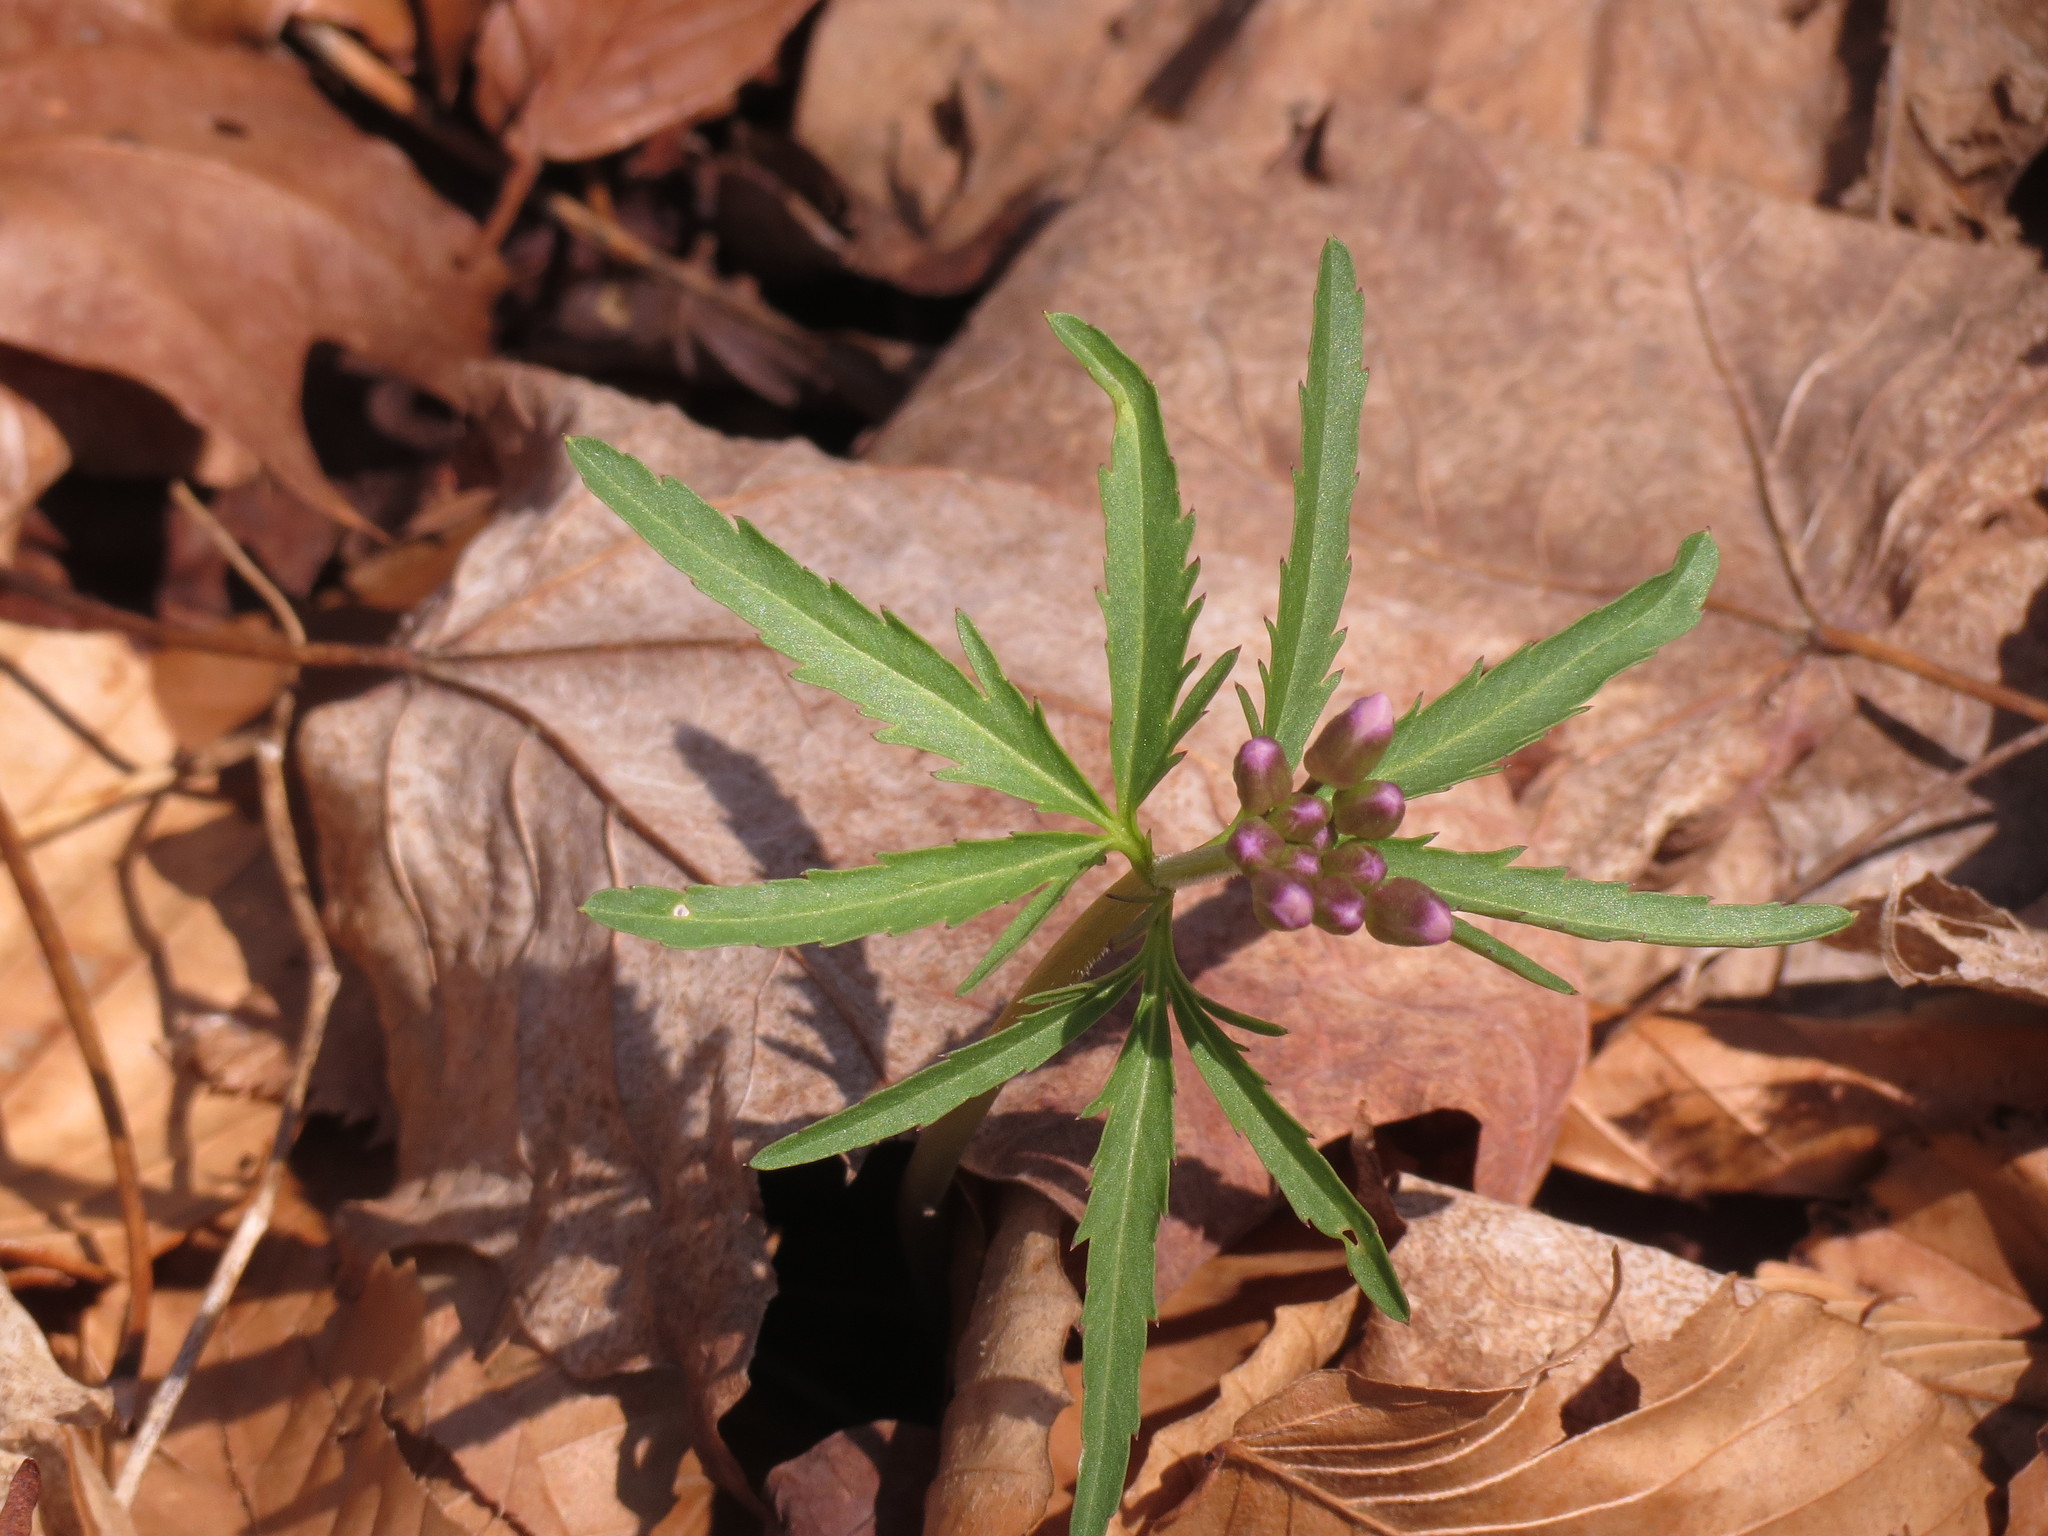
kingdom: Plantae
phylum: Tracheophyta
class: Magnoliopsida
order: Brassicales
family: Brassicaceae
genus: Cardamine
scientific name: Cardamine concatenata
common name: Cut-leaf toothcup
